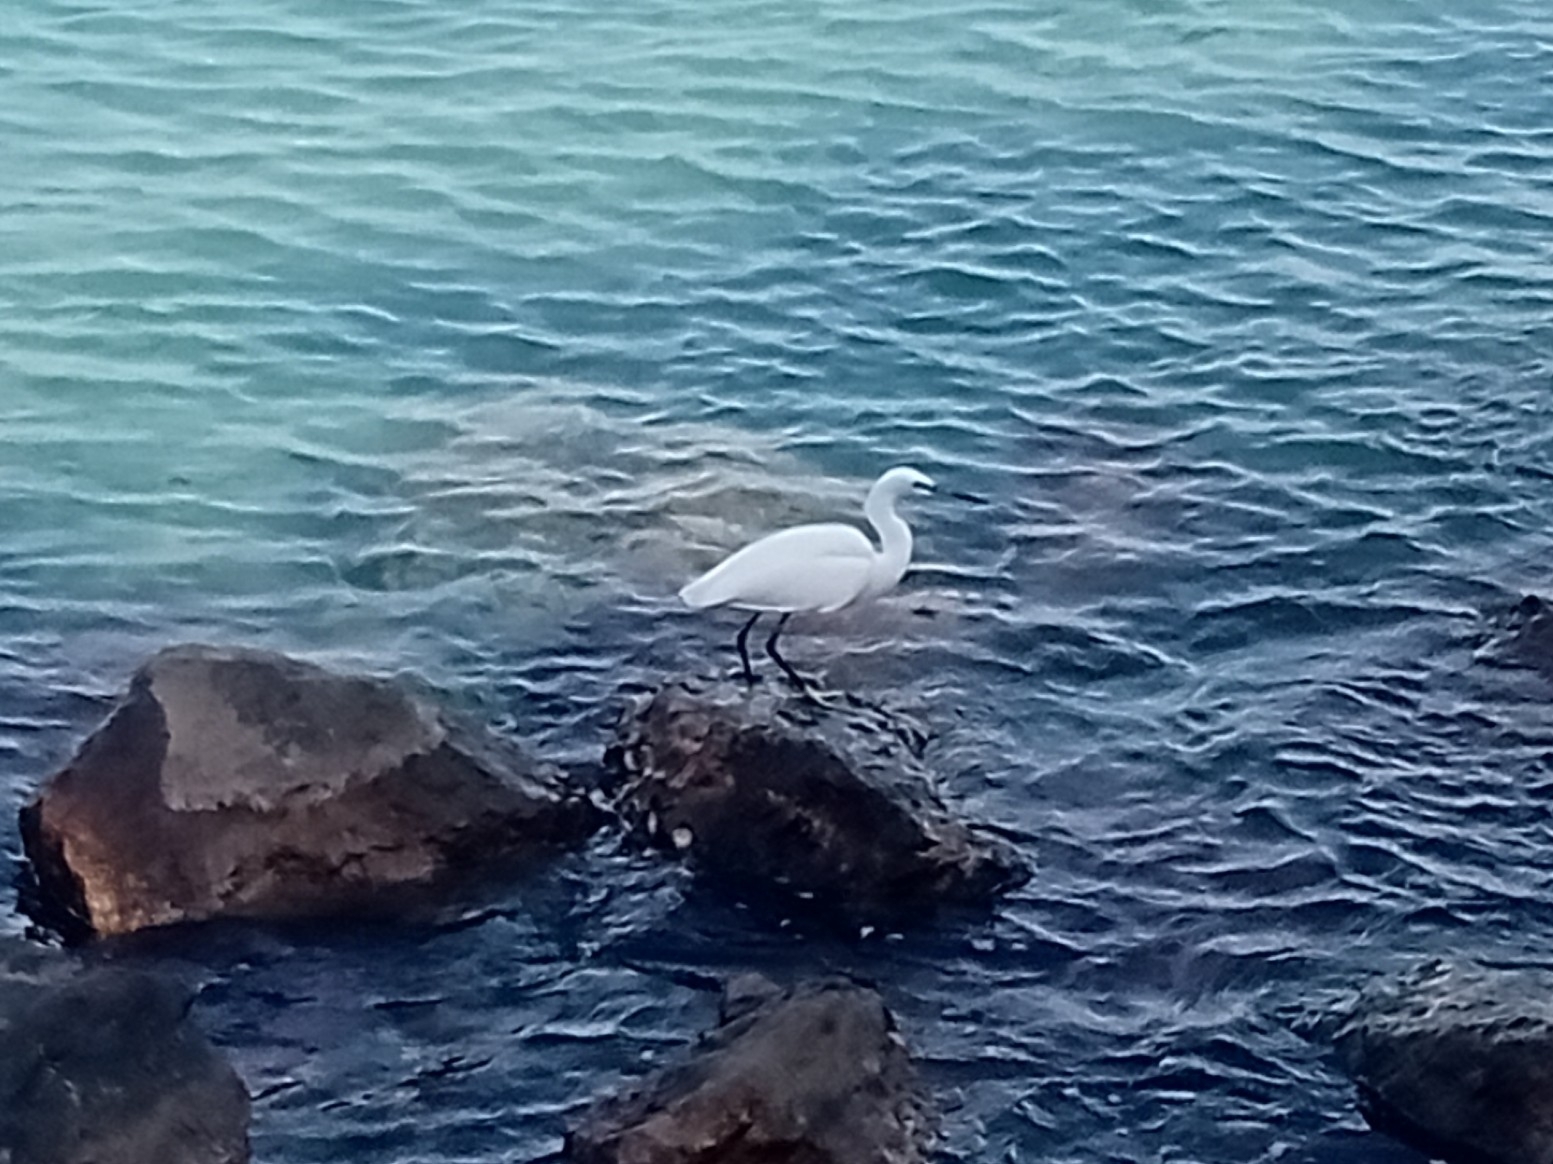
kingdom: Animalia
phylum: Chordata
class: Aves
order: Pelecaniformes
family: Ardeidae
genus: Egretta
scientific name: Egretta garzetta
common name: Little egret
